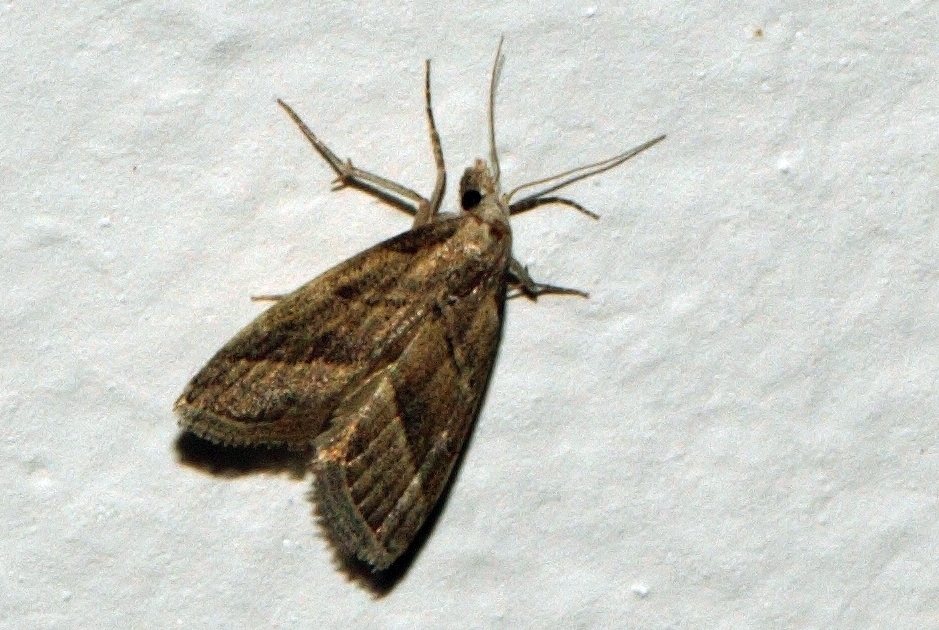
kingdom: Animalia
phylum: Arthropoda
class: Insecta
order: Lepidoptera
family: Nolidae
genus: Nola
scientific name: Nola imitata
